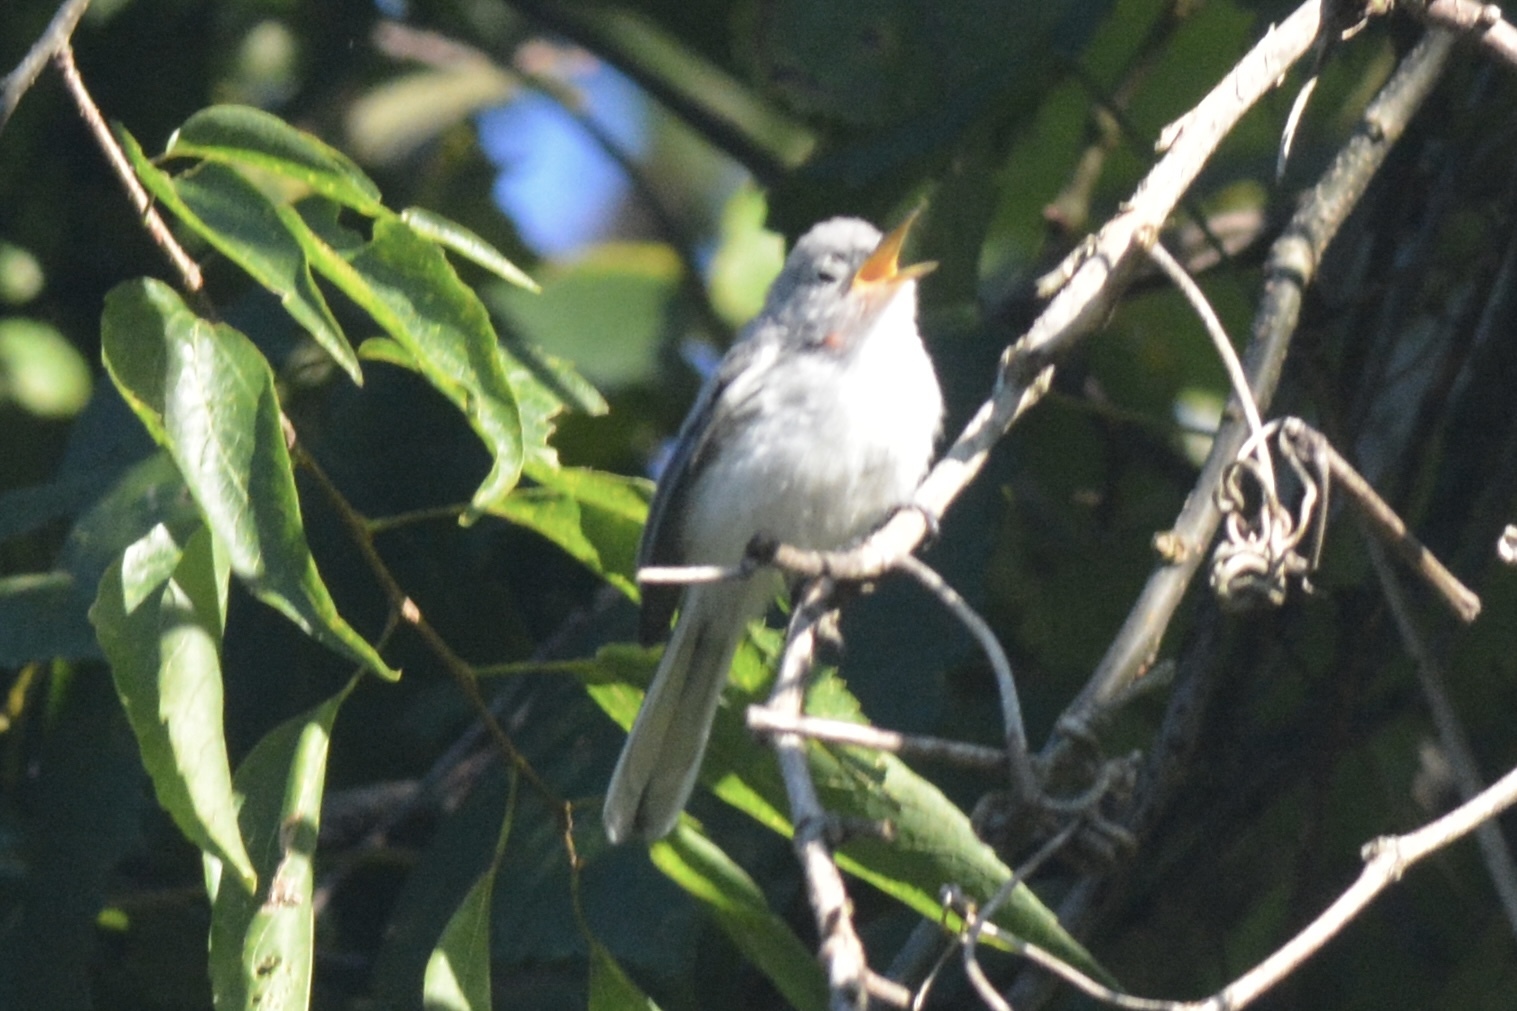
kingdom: Animalia
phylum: Chordata
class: Aves
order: Passeriformes
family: Polioptilidae
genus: Polioptila
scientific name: Polioptila caerulea
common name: Blue-gray gnatcatcher
